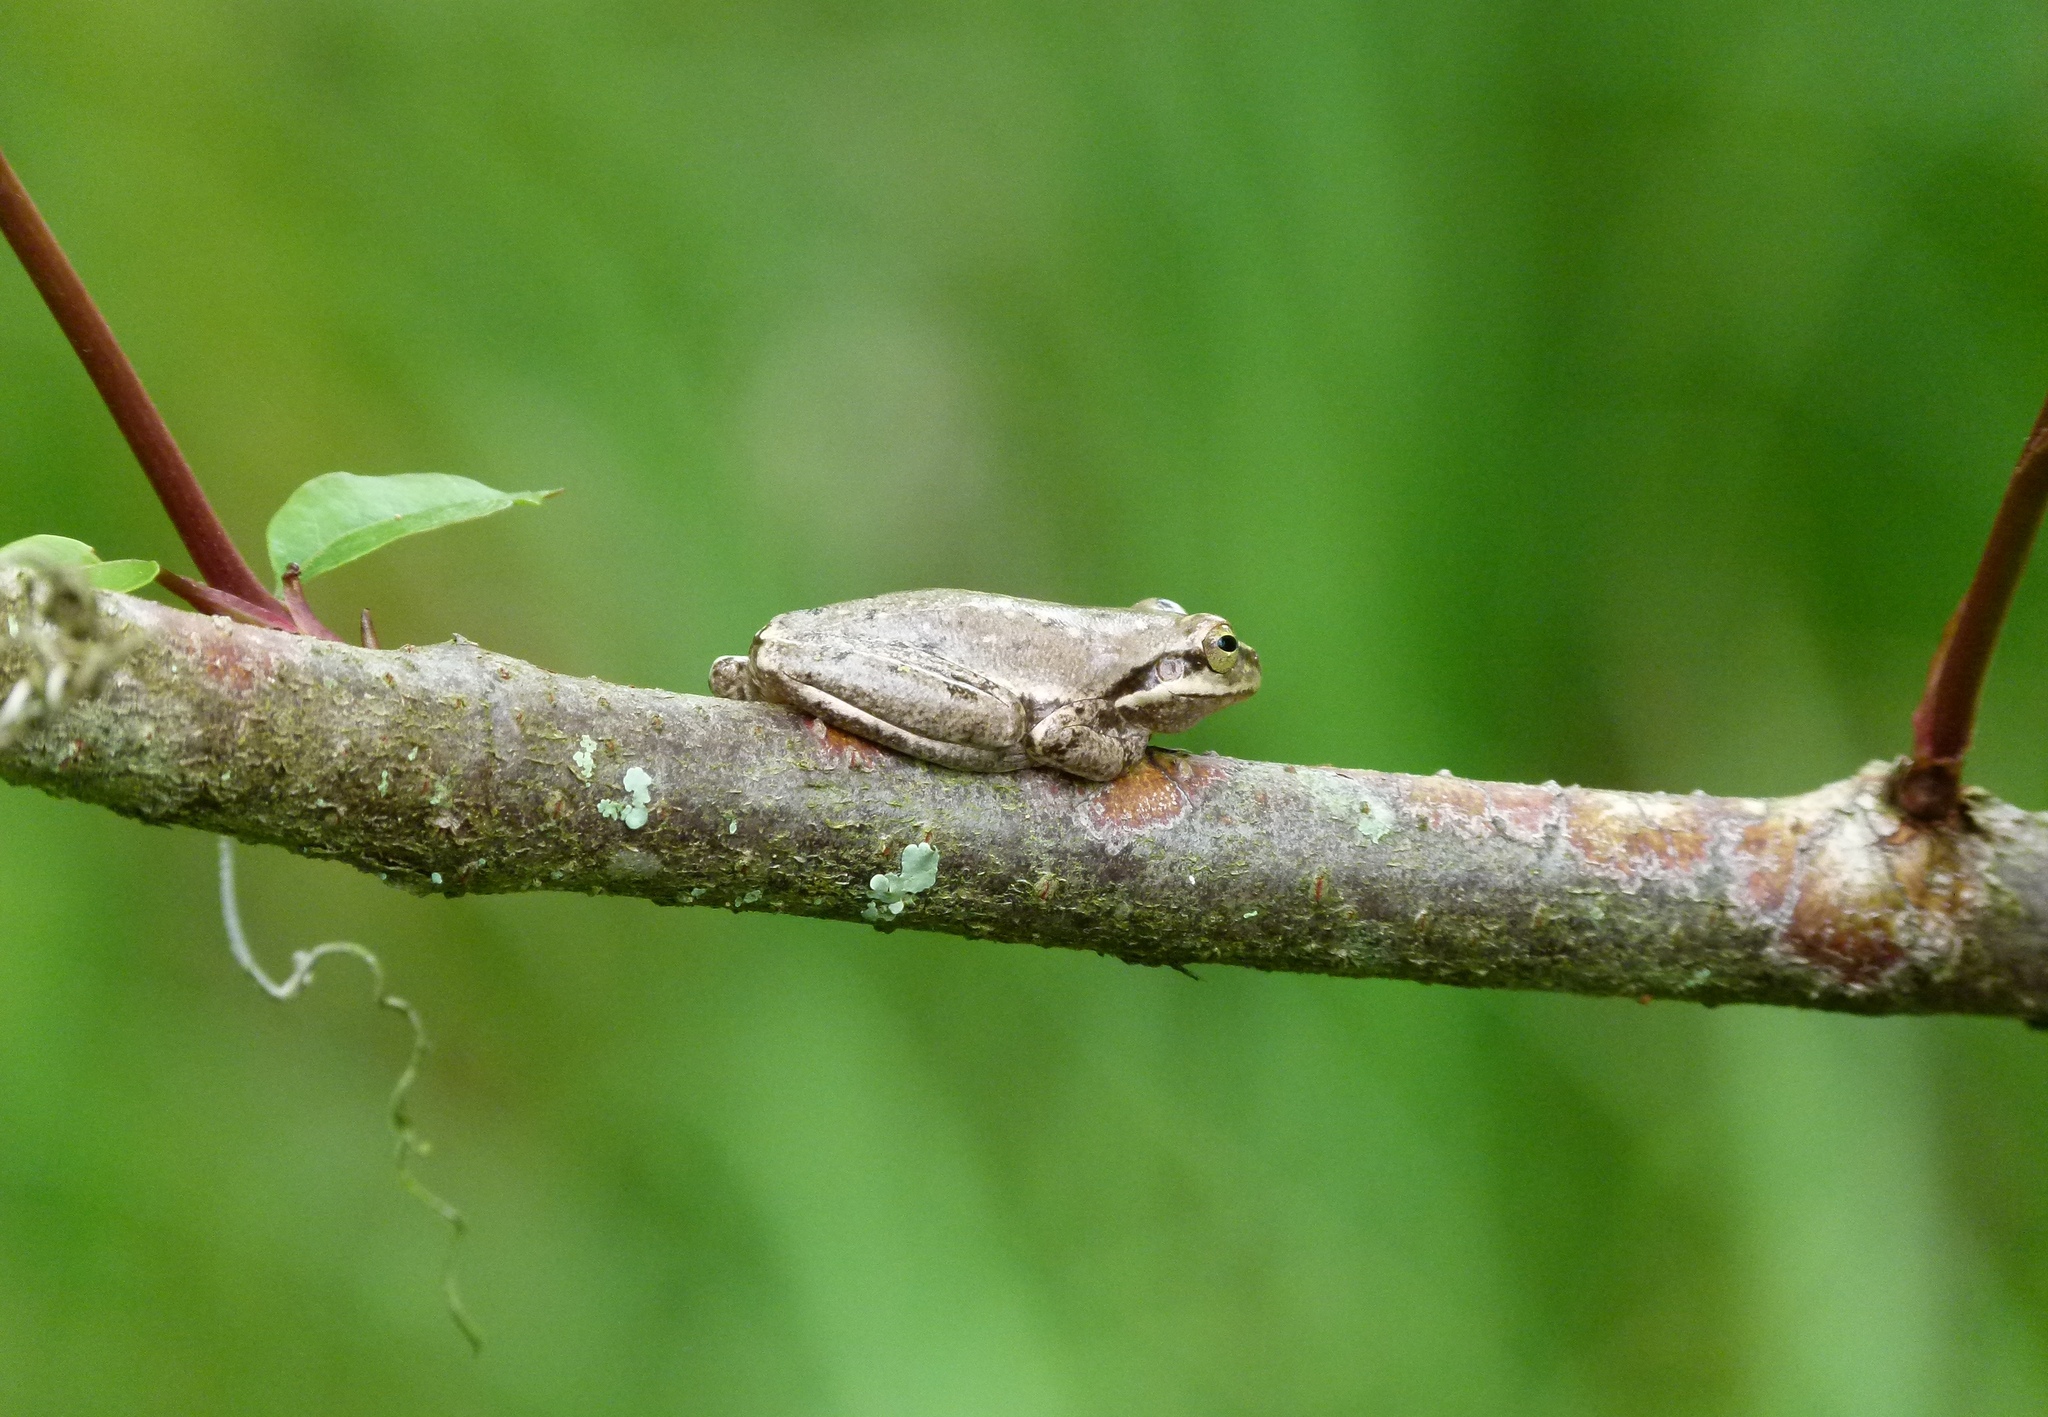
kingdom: Animalia
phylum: Chordata
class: Amphibia
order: Anura
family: Hylidae
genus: Dryophytes
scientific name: Dryophytes squirellus
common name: Squirrel treefrog
